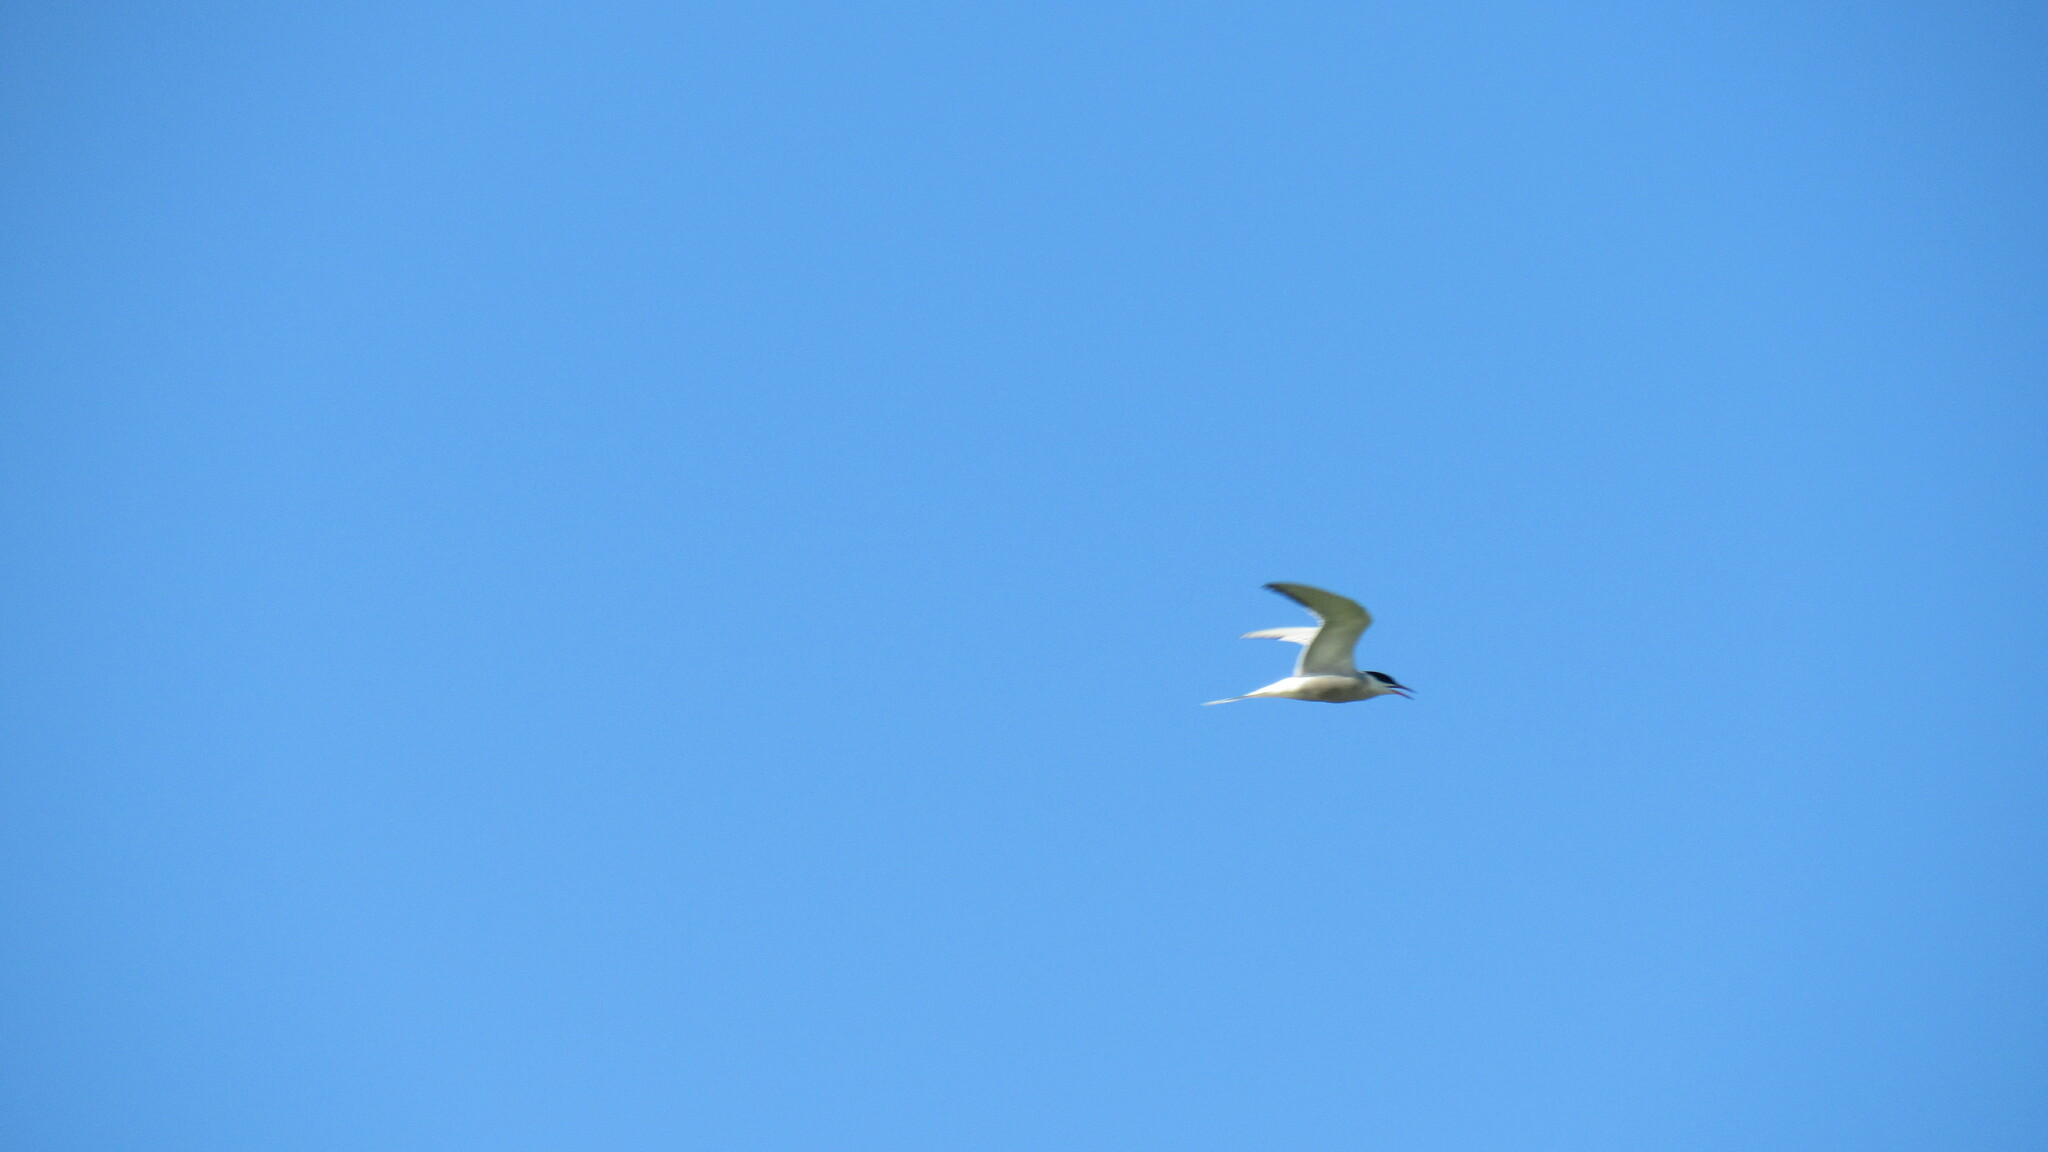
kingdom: Animalia
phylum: Chordata
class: Aves
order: Charadriiformes
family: Laridae
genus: Sterna
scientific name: Sterna hirundo
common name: Common tern
